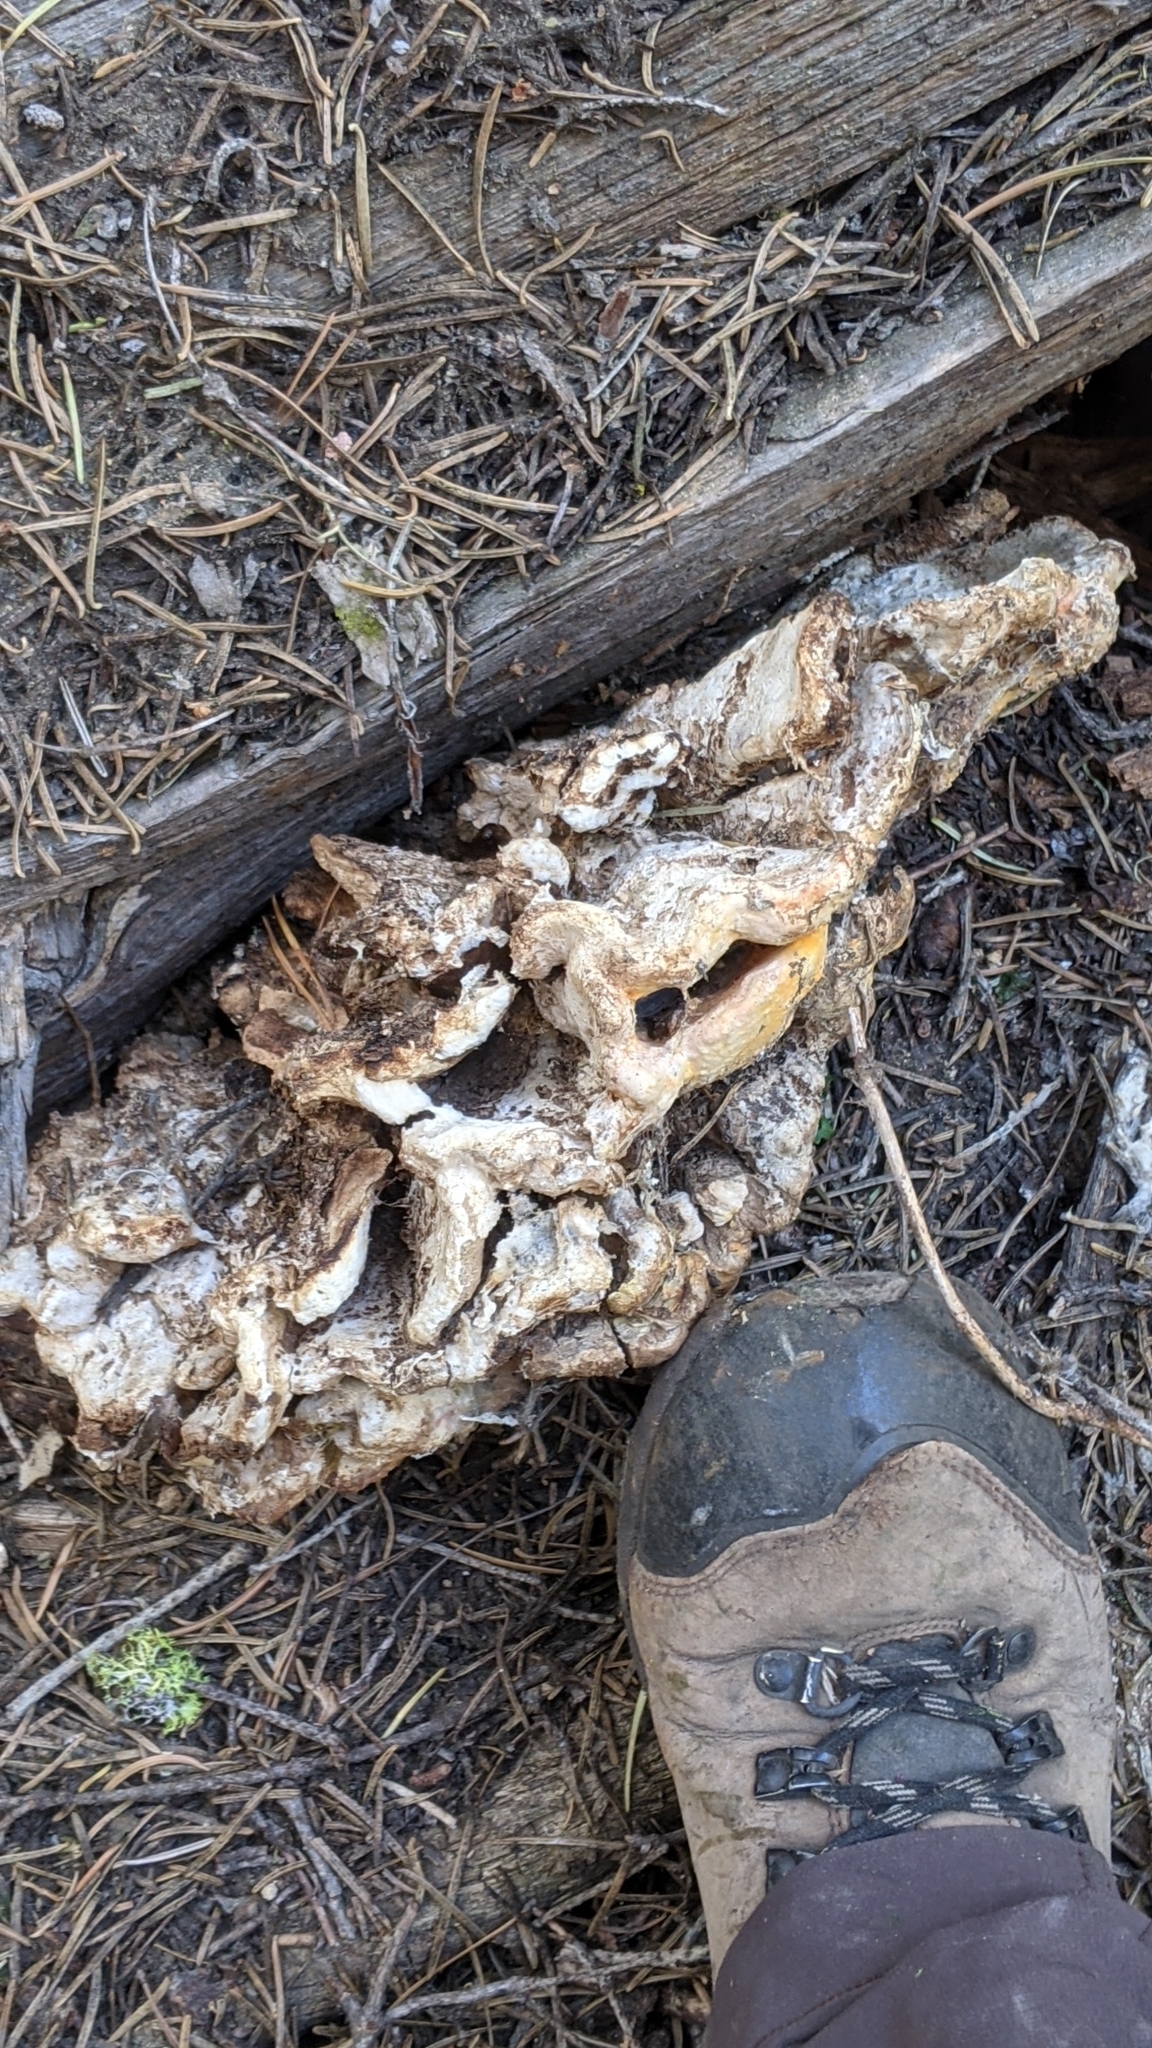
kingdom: Fungi
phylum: Basidiomycota
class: Agaricomycetes
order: Polyporales
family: Laetiporaceae
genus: Laetiporus
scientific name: Laetiporus conifericola
